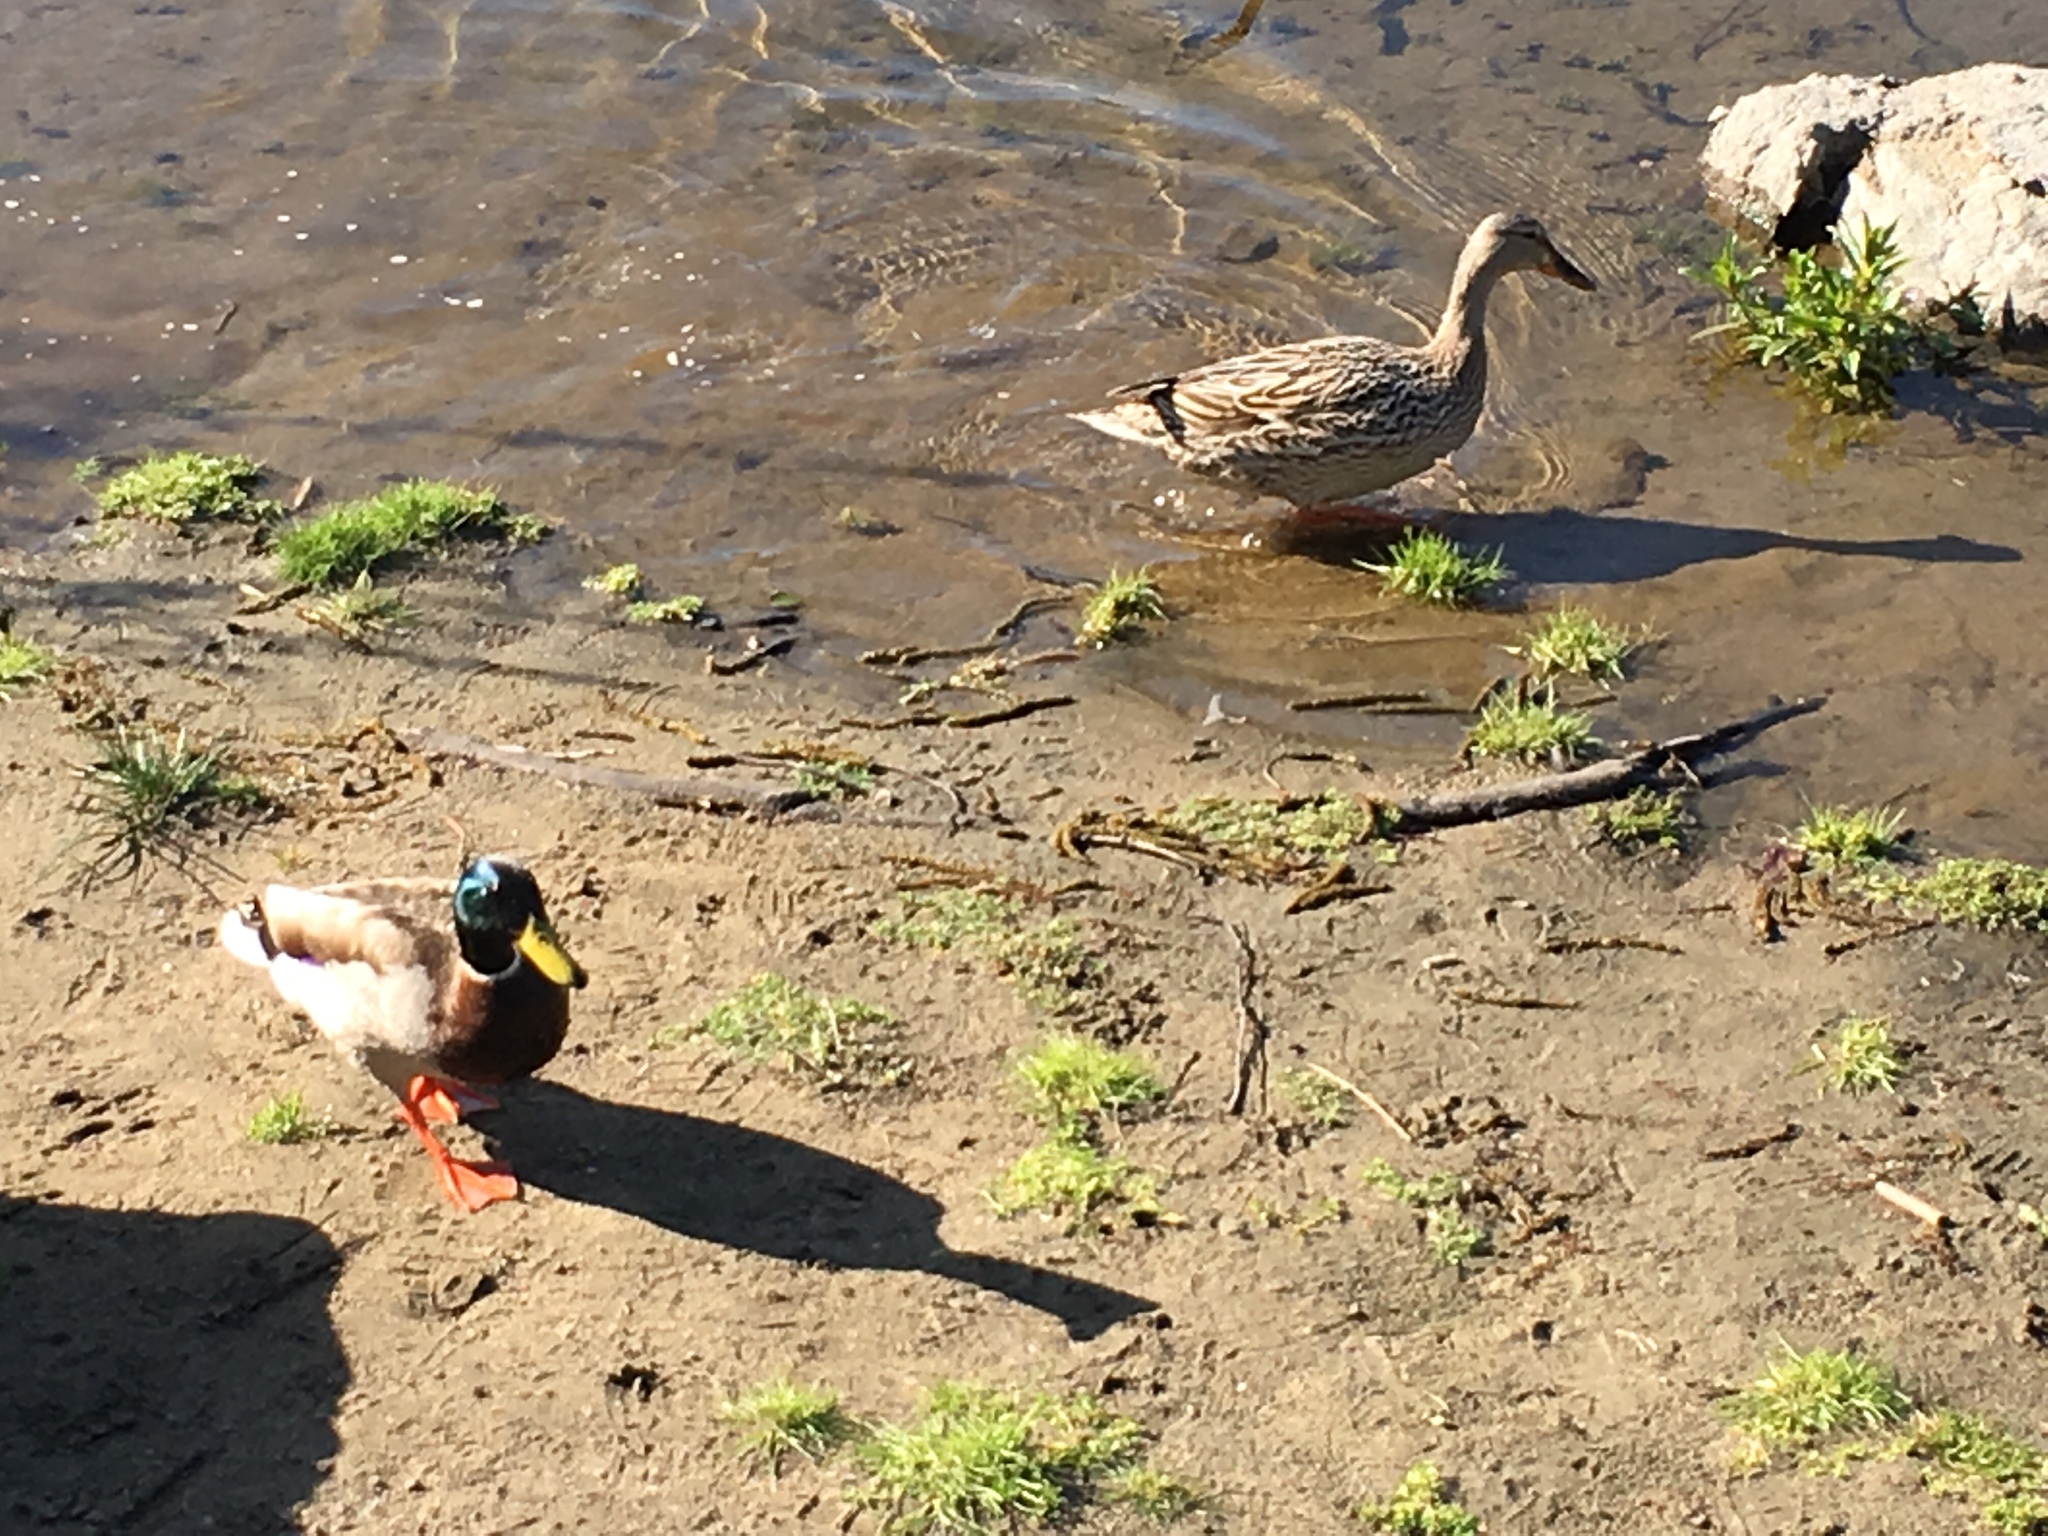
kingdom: Animalia
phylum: Chordata
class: Aves
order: Anseriformes
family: Anatidae
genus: Anas
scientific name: Anas platyrhynchos
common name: Mallard
